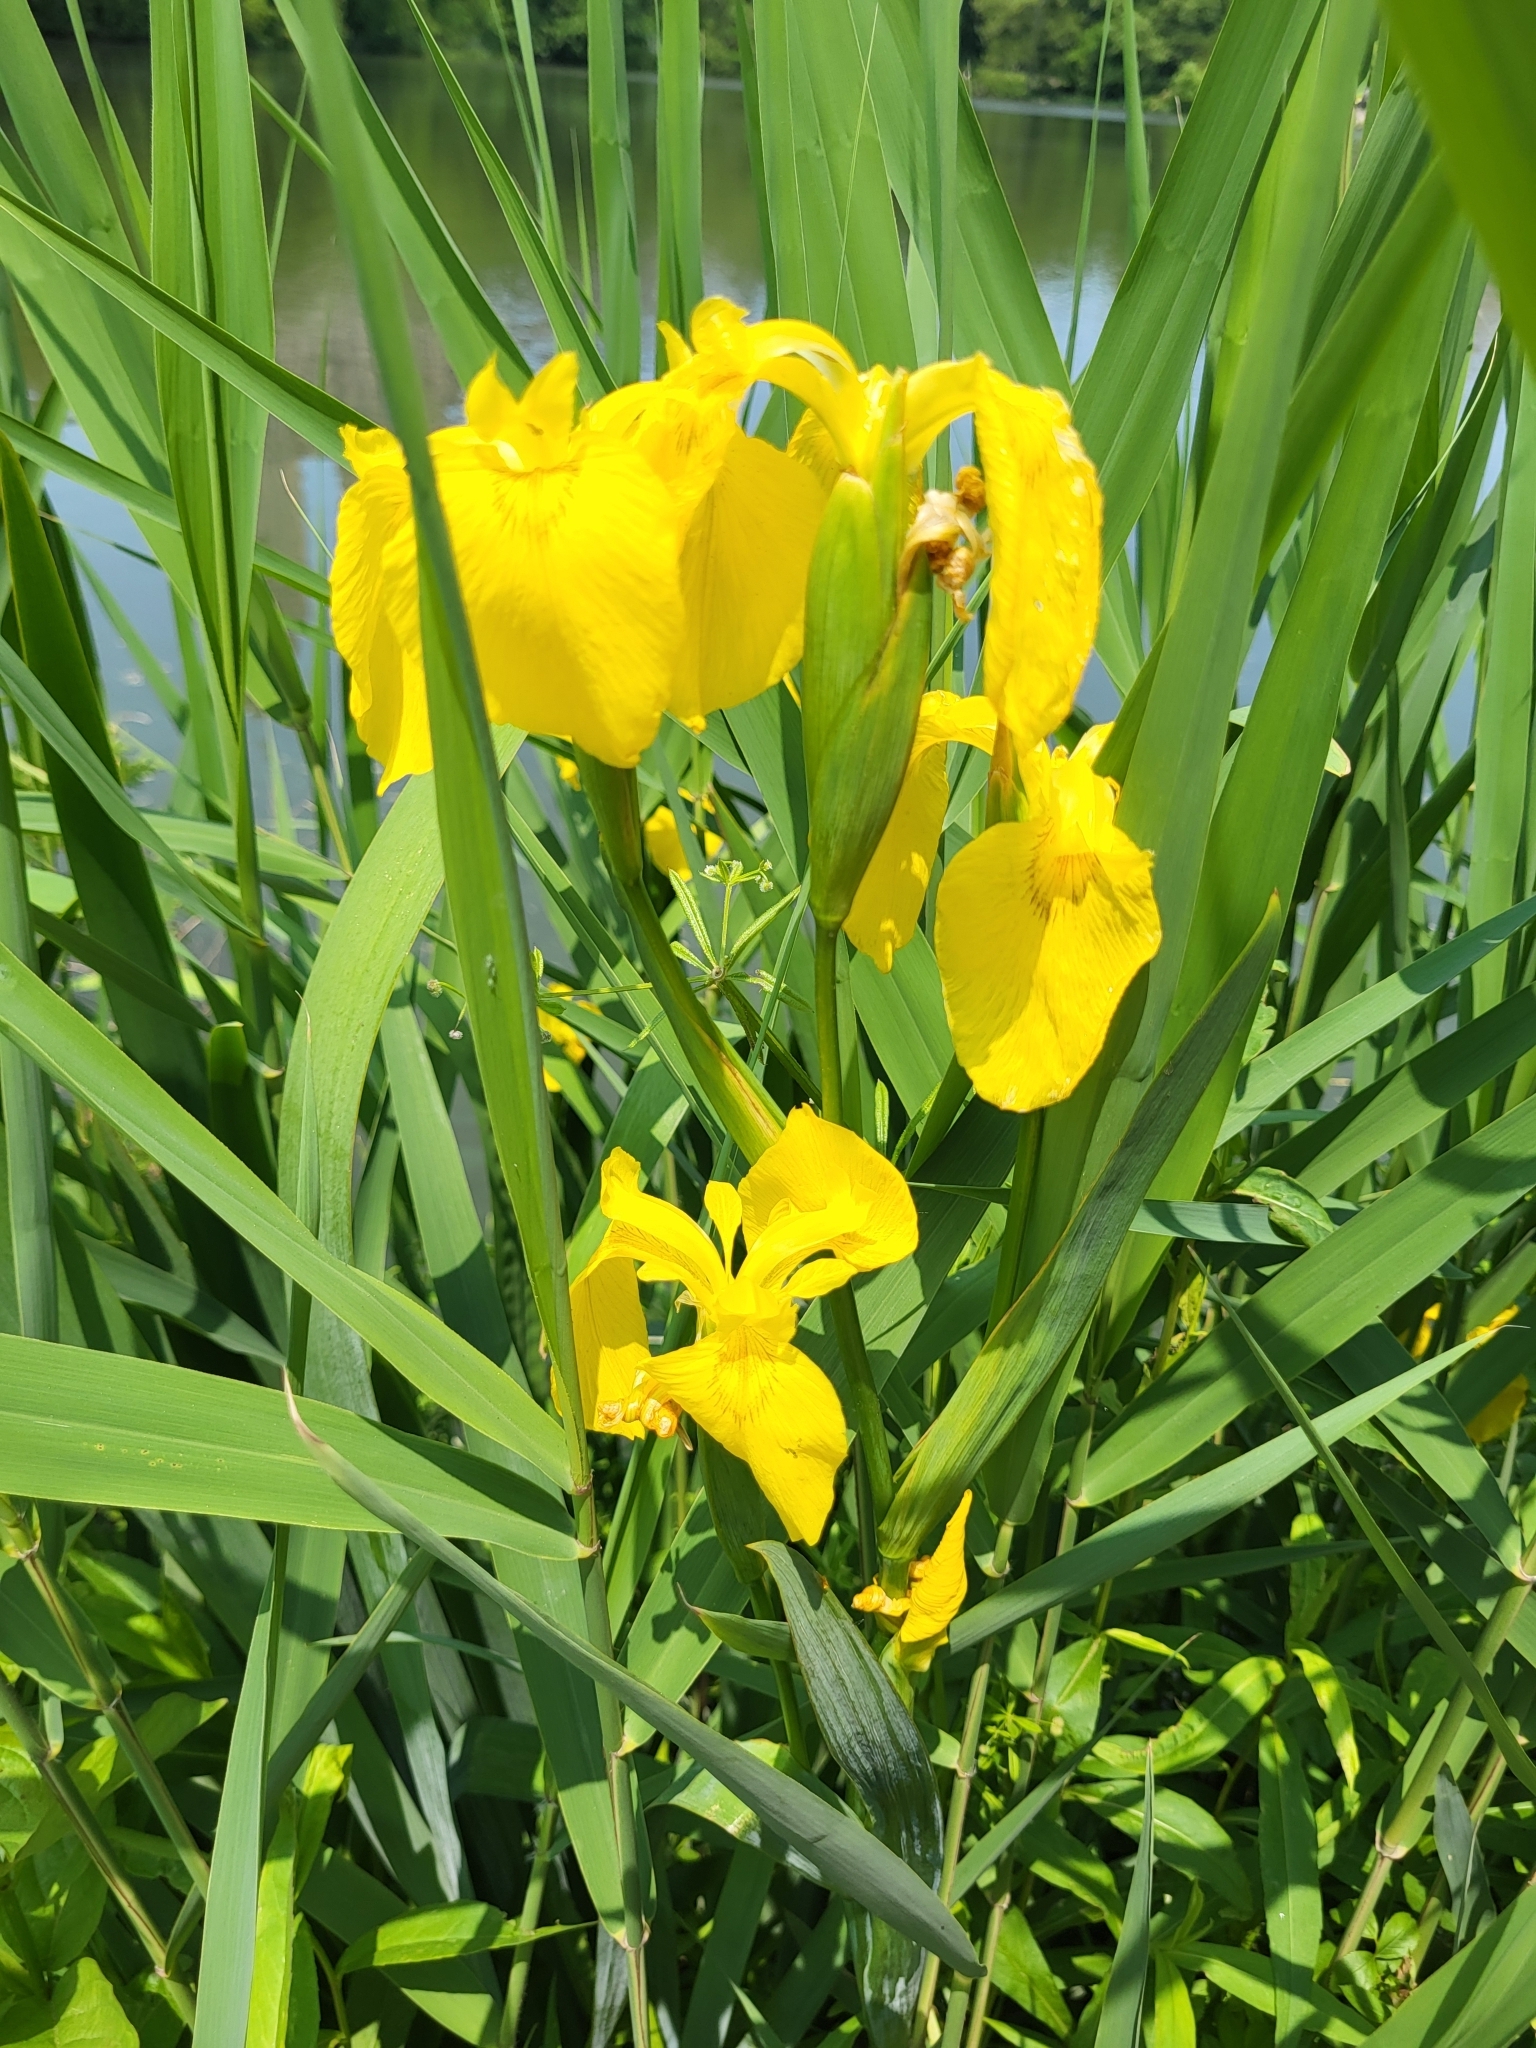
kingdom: Plantae
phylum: Tracheophyta
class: Liliopsida
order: Asparagales
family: Iridaceae
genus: Iris
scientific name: Iris pseudacorus
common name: Yellow flag
